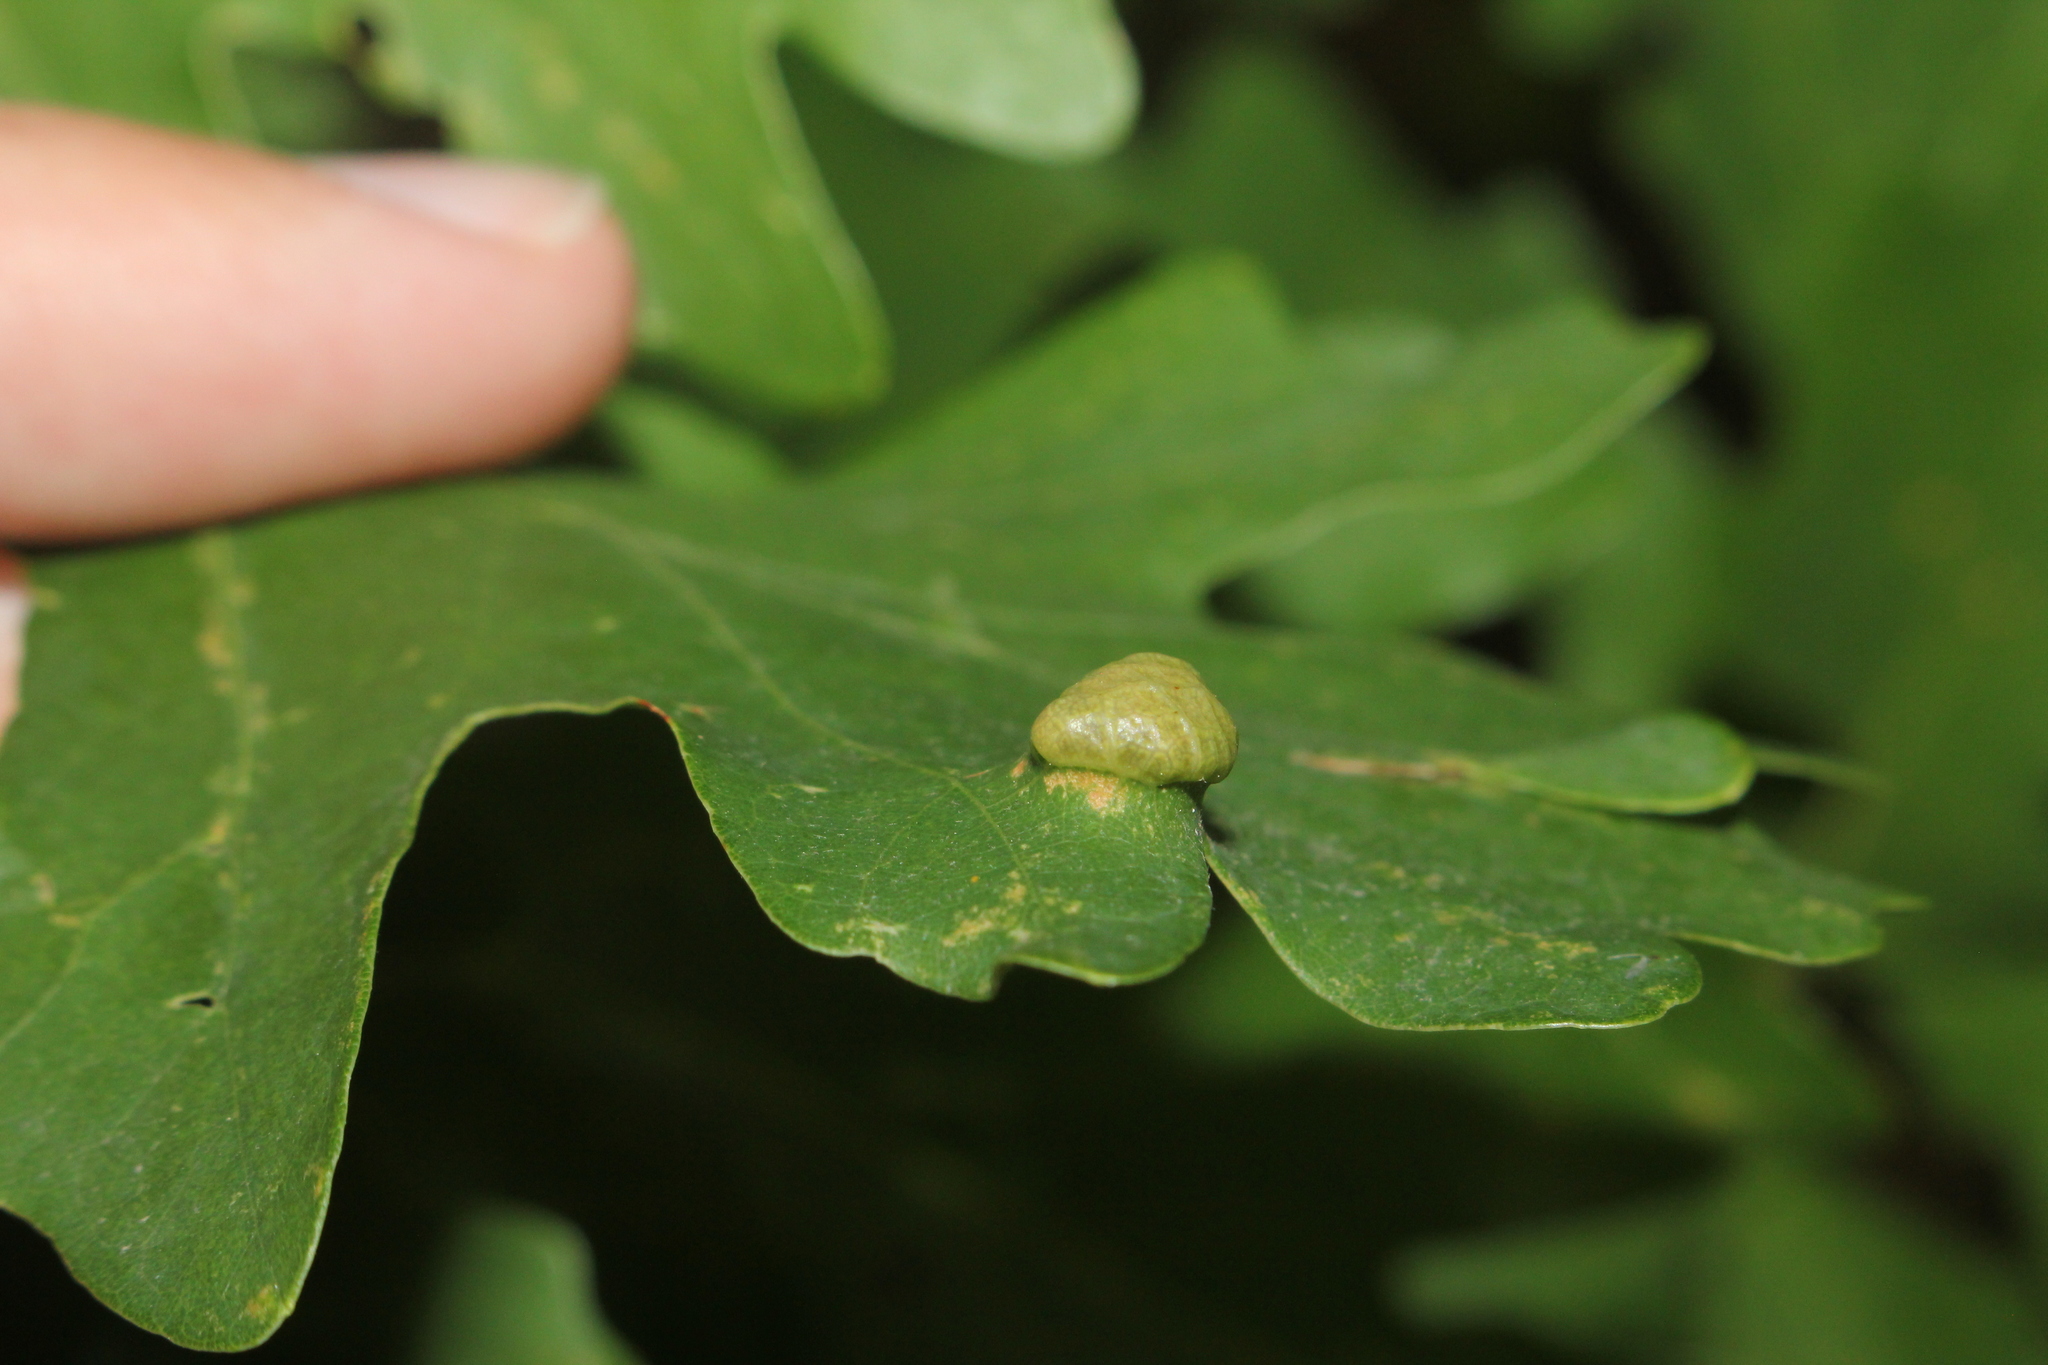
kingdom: Animalia
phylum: Arthropoda
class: Arachnida
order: Trombidiformes
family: Eriophyidae
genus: Aceria
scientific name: Aceria quercina
